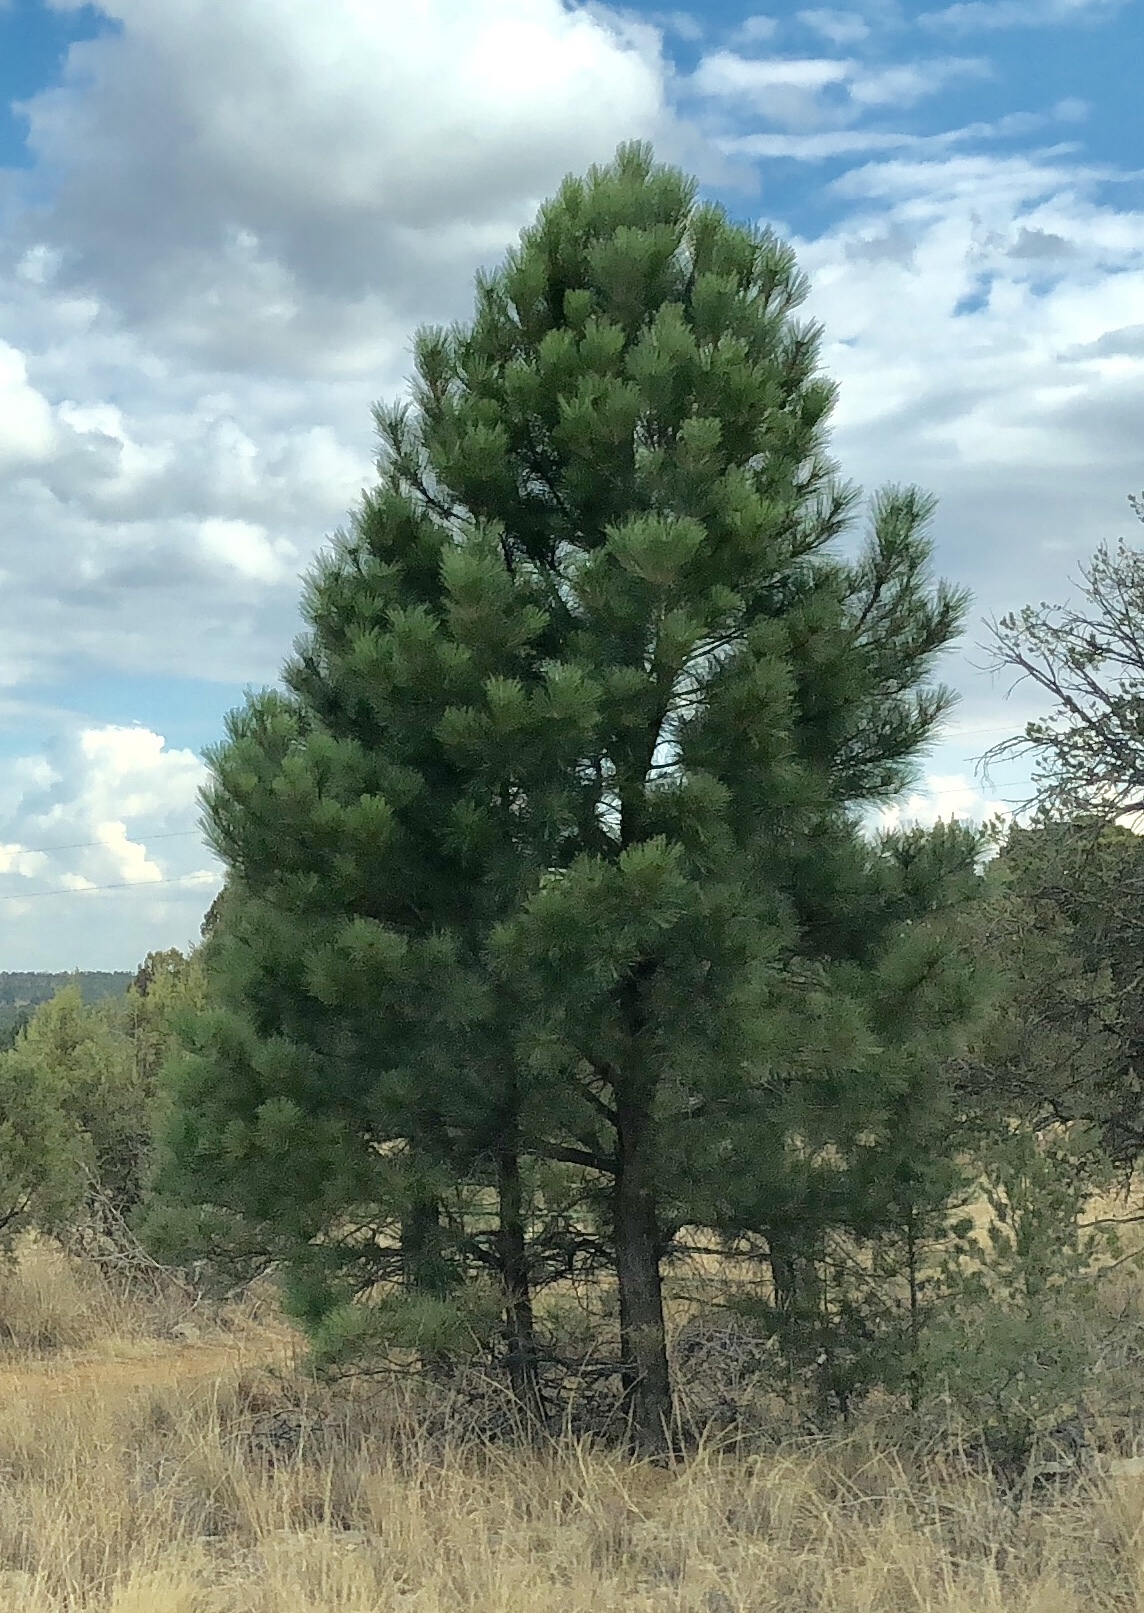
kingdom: Plantae
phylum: Tracheophyta
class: Pinopsida
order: Pinales
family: Pinaceae
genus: Pinus
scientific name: Pinus ponderosa
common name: Western yellow-pine
